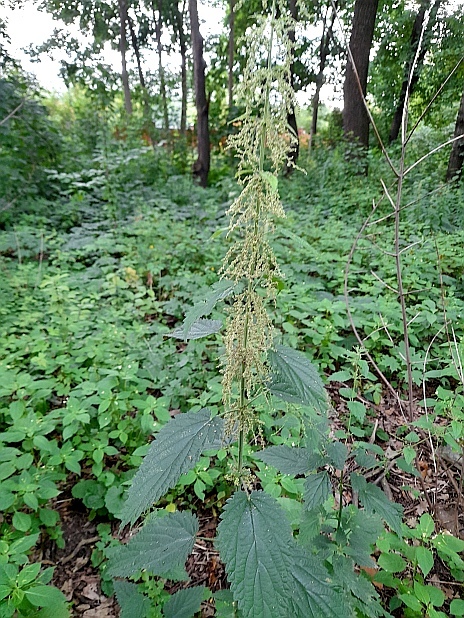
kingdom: Plantae
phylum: Tracheophyta
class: Magnoliopsida
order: Rosales
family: Urticaceae
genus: Urtica
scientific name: Urtica dioica
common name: Common nettle
